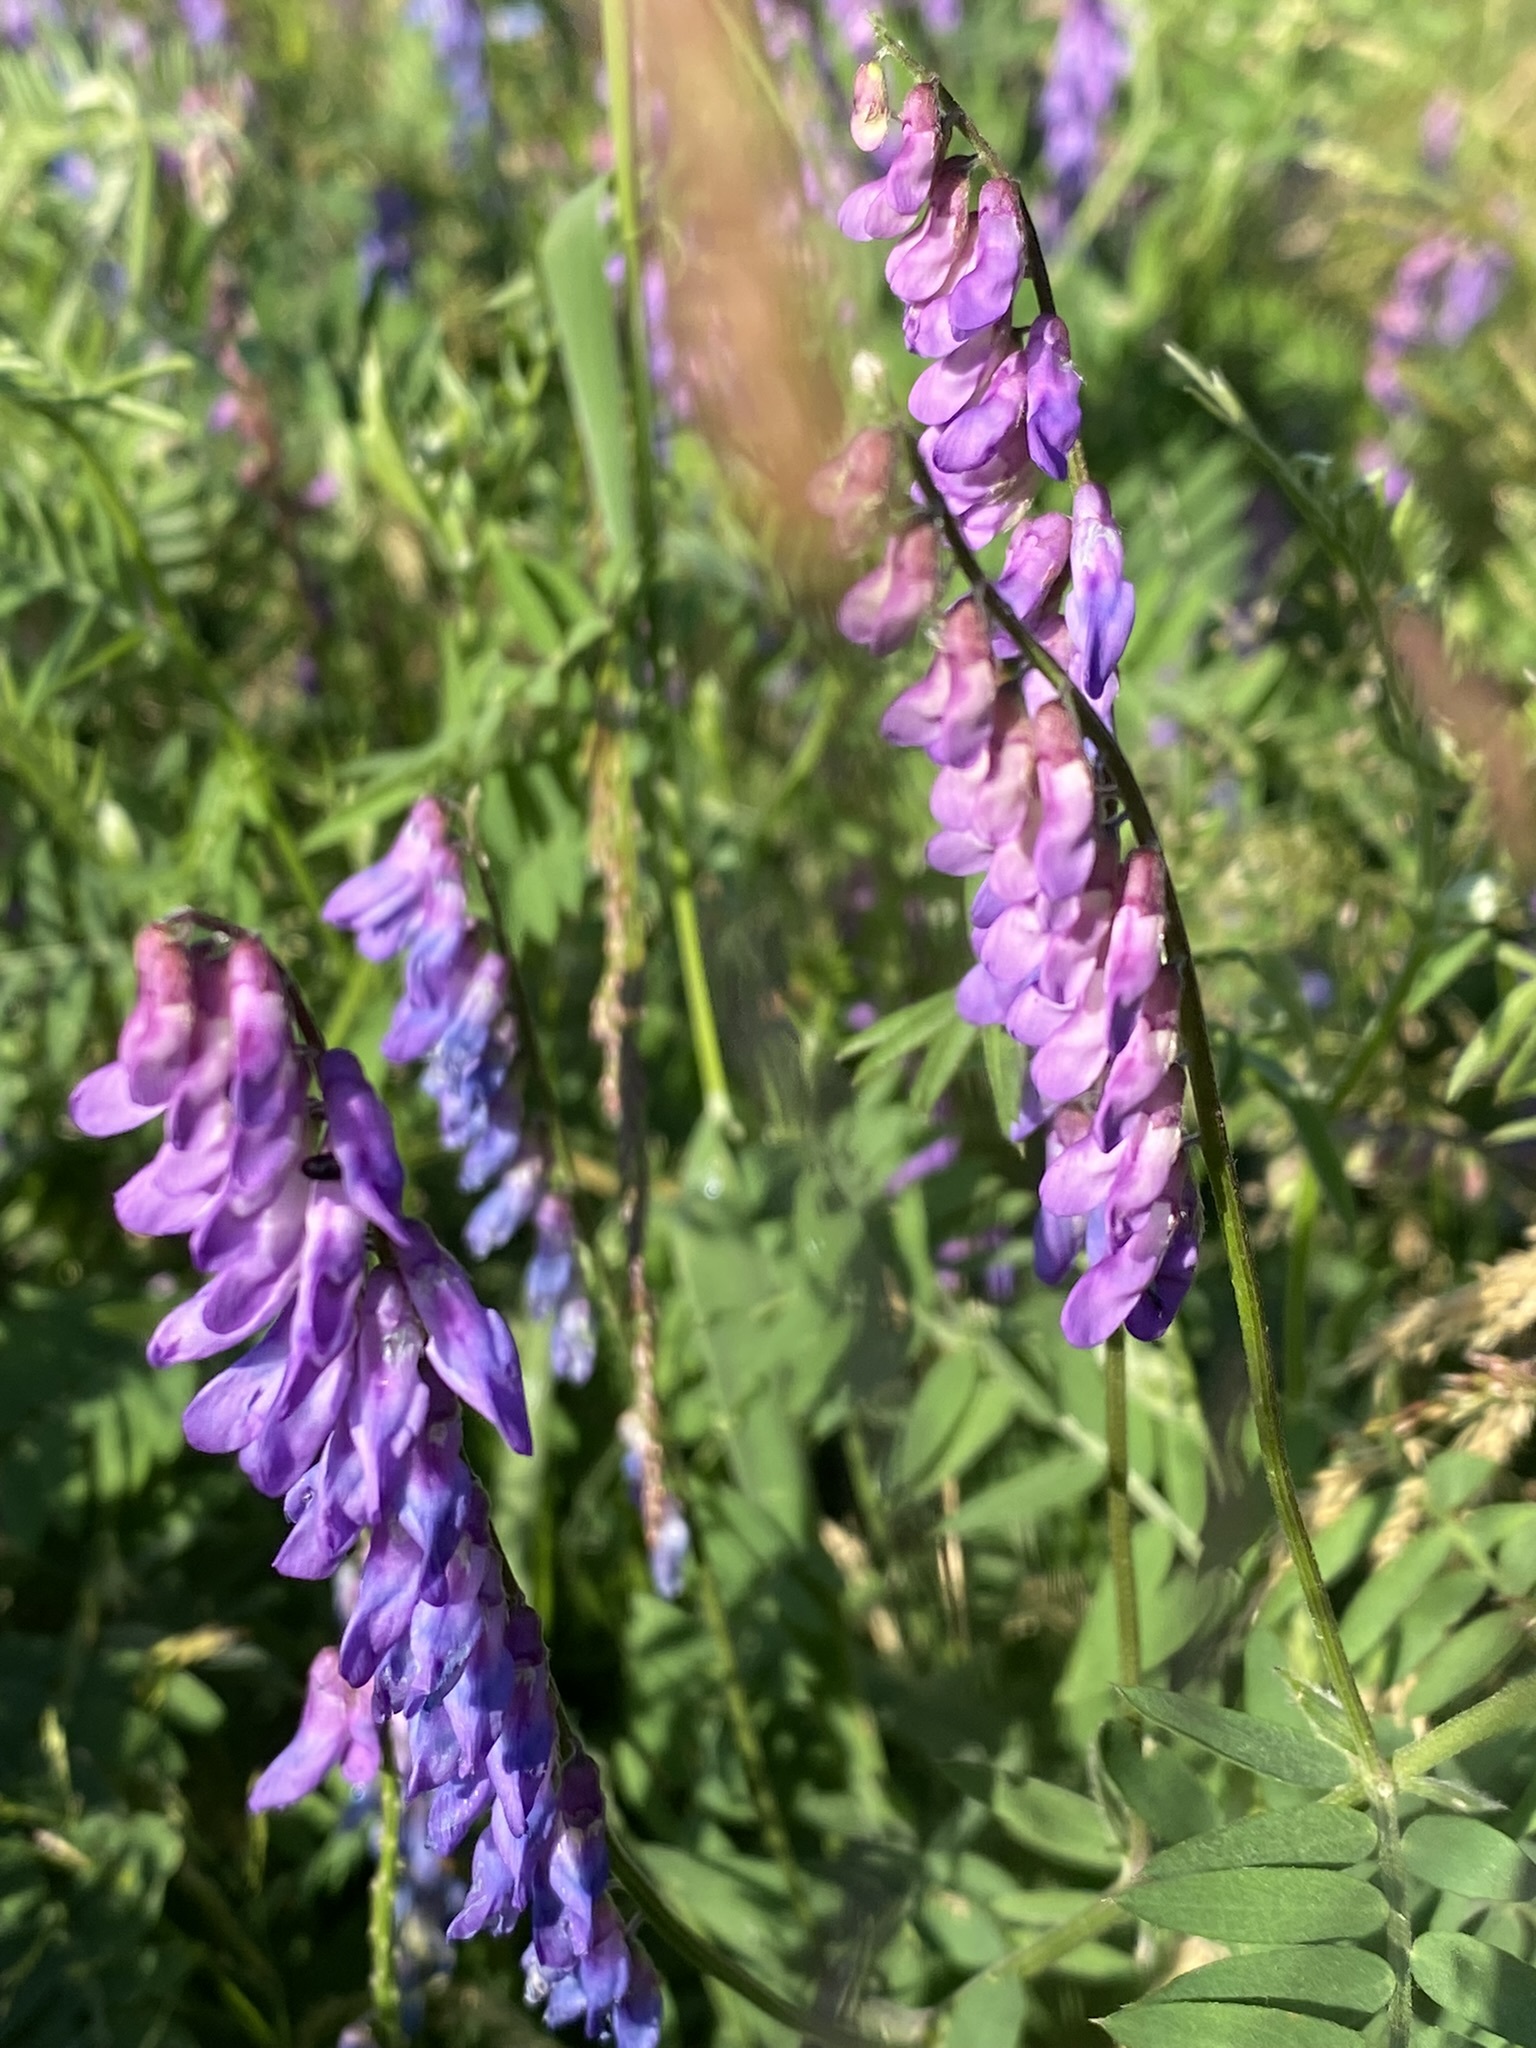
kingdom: Plantae
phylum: Tracheophyta
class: Magnoliopsida
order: Fabales
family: Fabaceae
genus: Vicia
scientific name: Vicia cracca
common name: Bird vetch
